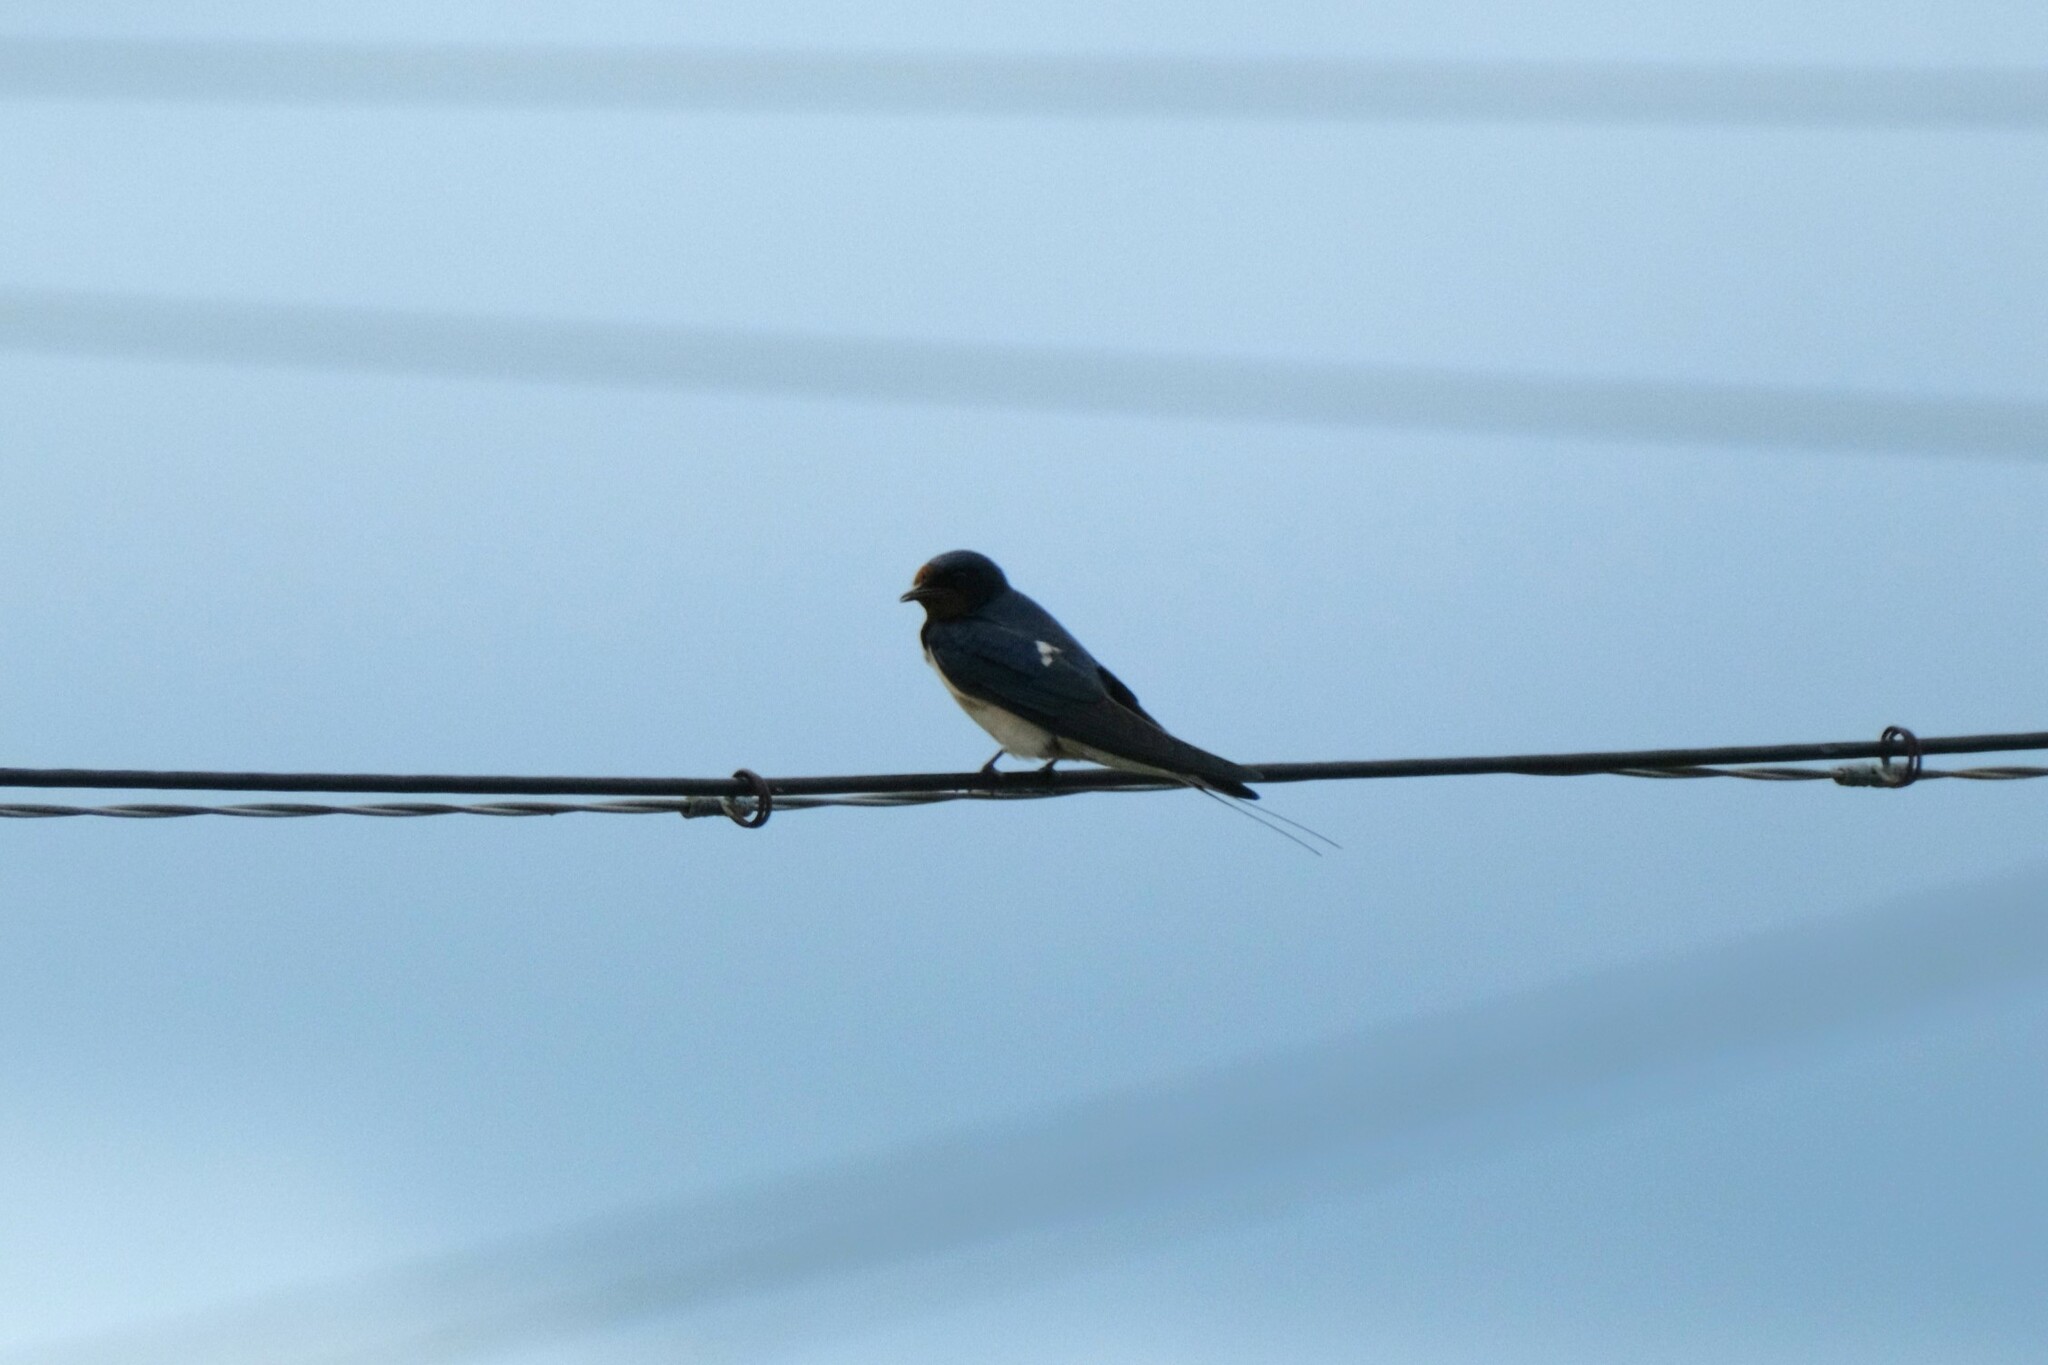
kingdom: Animalia
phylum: Chordata
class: Aves
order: Passeriformes
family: Hirundinidae
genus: Hirundo
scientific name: Hirundo rustica
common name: Barn swallow
